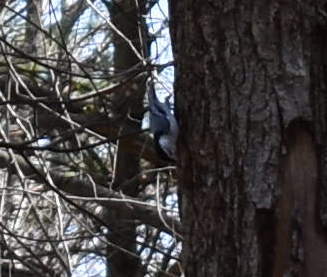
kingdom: Animalia
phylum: Chordata
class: Aves
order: Passeriformes
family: Sittidae
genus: Sitta
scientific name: Sitta carolinensis
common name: White-breasted nuthatch
